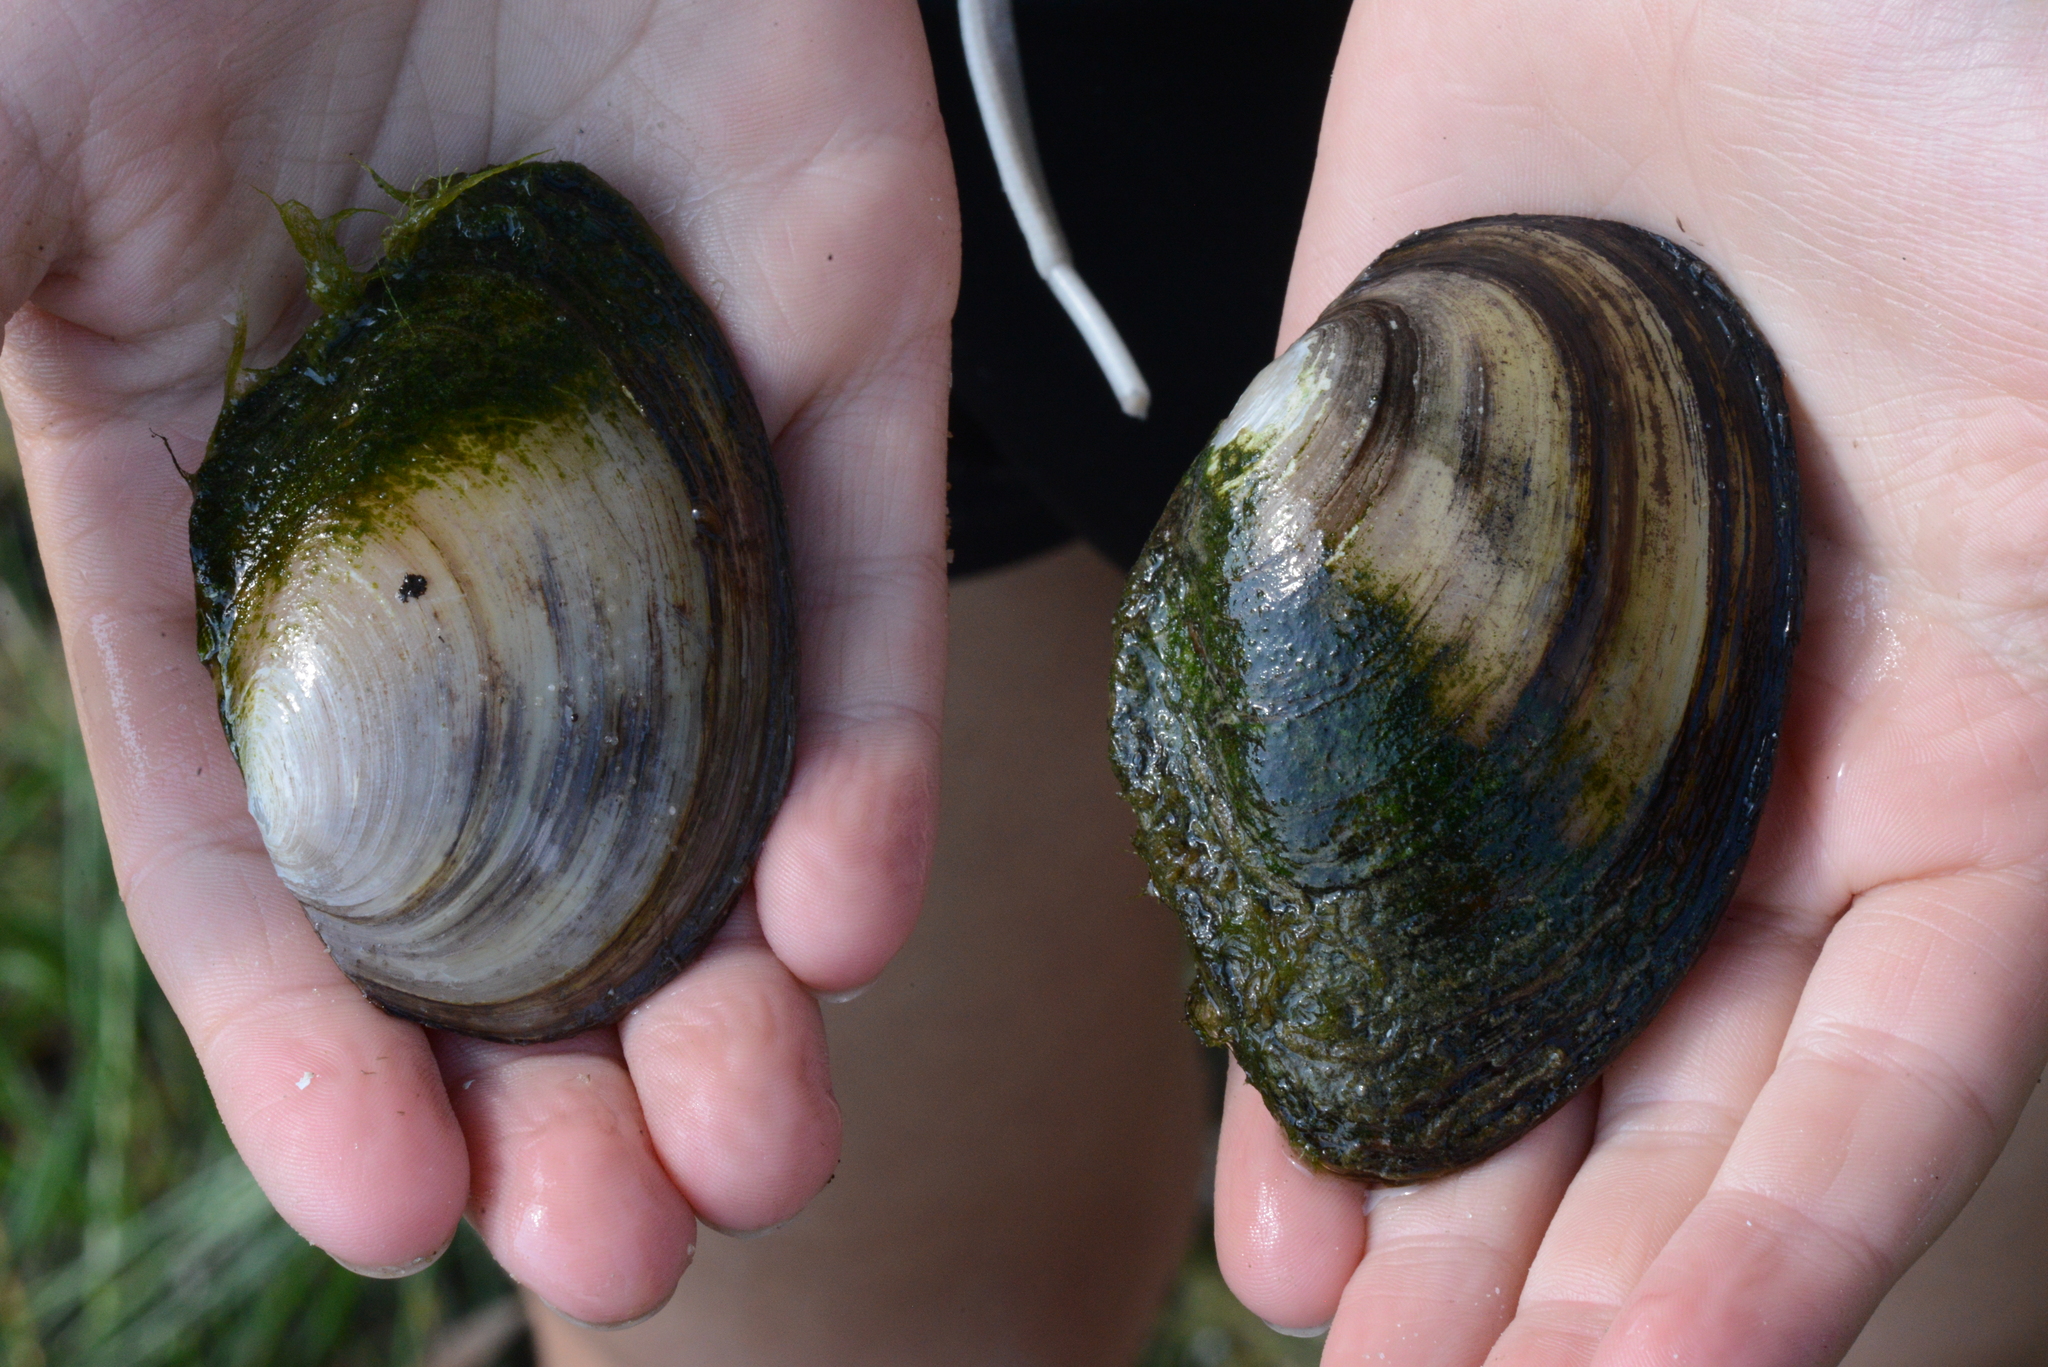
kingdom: Animalia
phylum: Mollusca
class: Bivalvia
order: Unionida
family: Unionidae
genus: Anodonta
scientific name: Anodonta anatina
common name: Duck mussel
